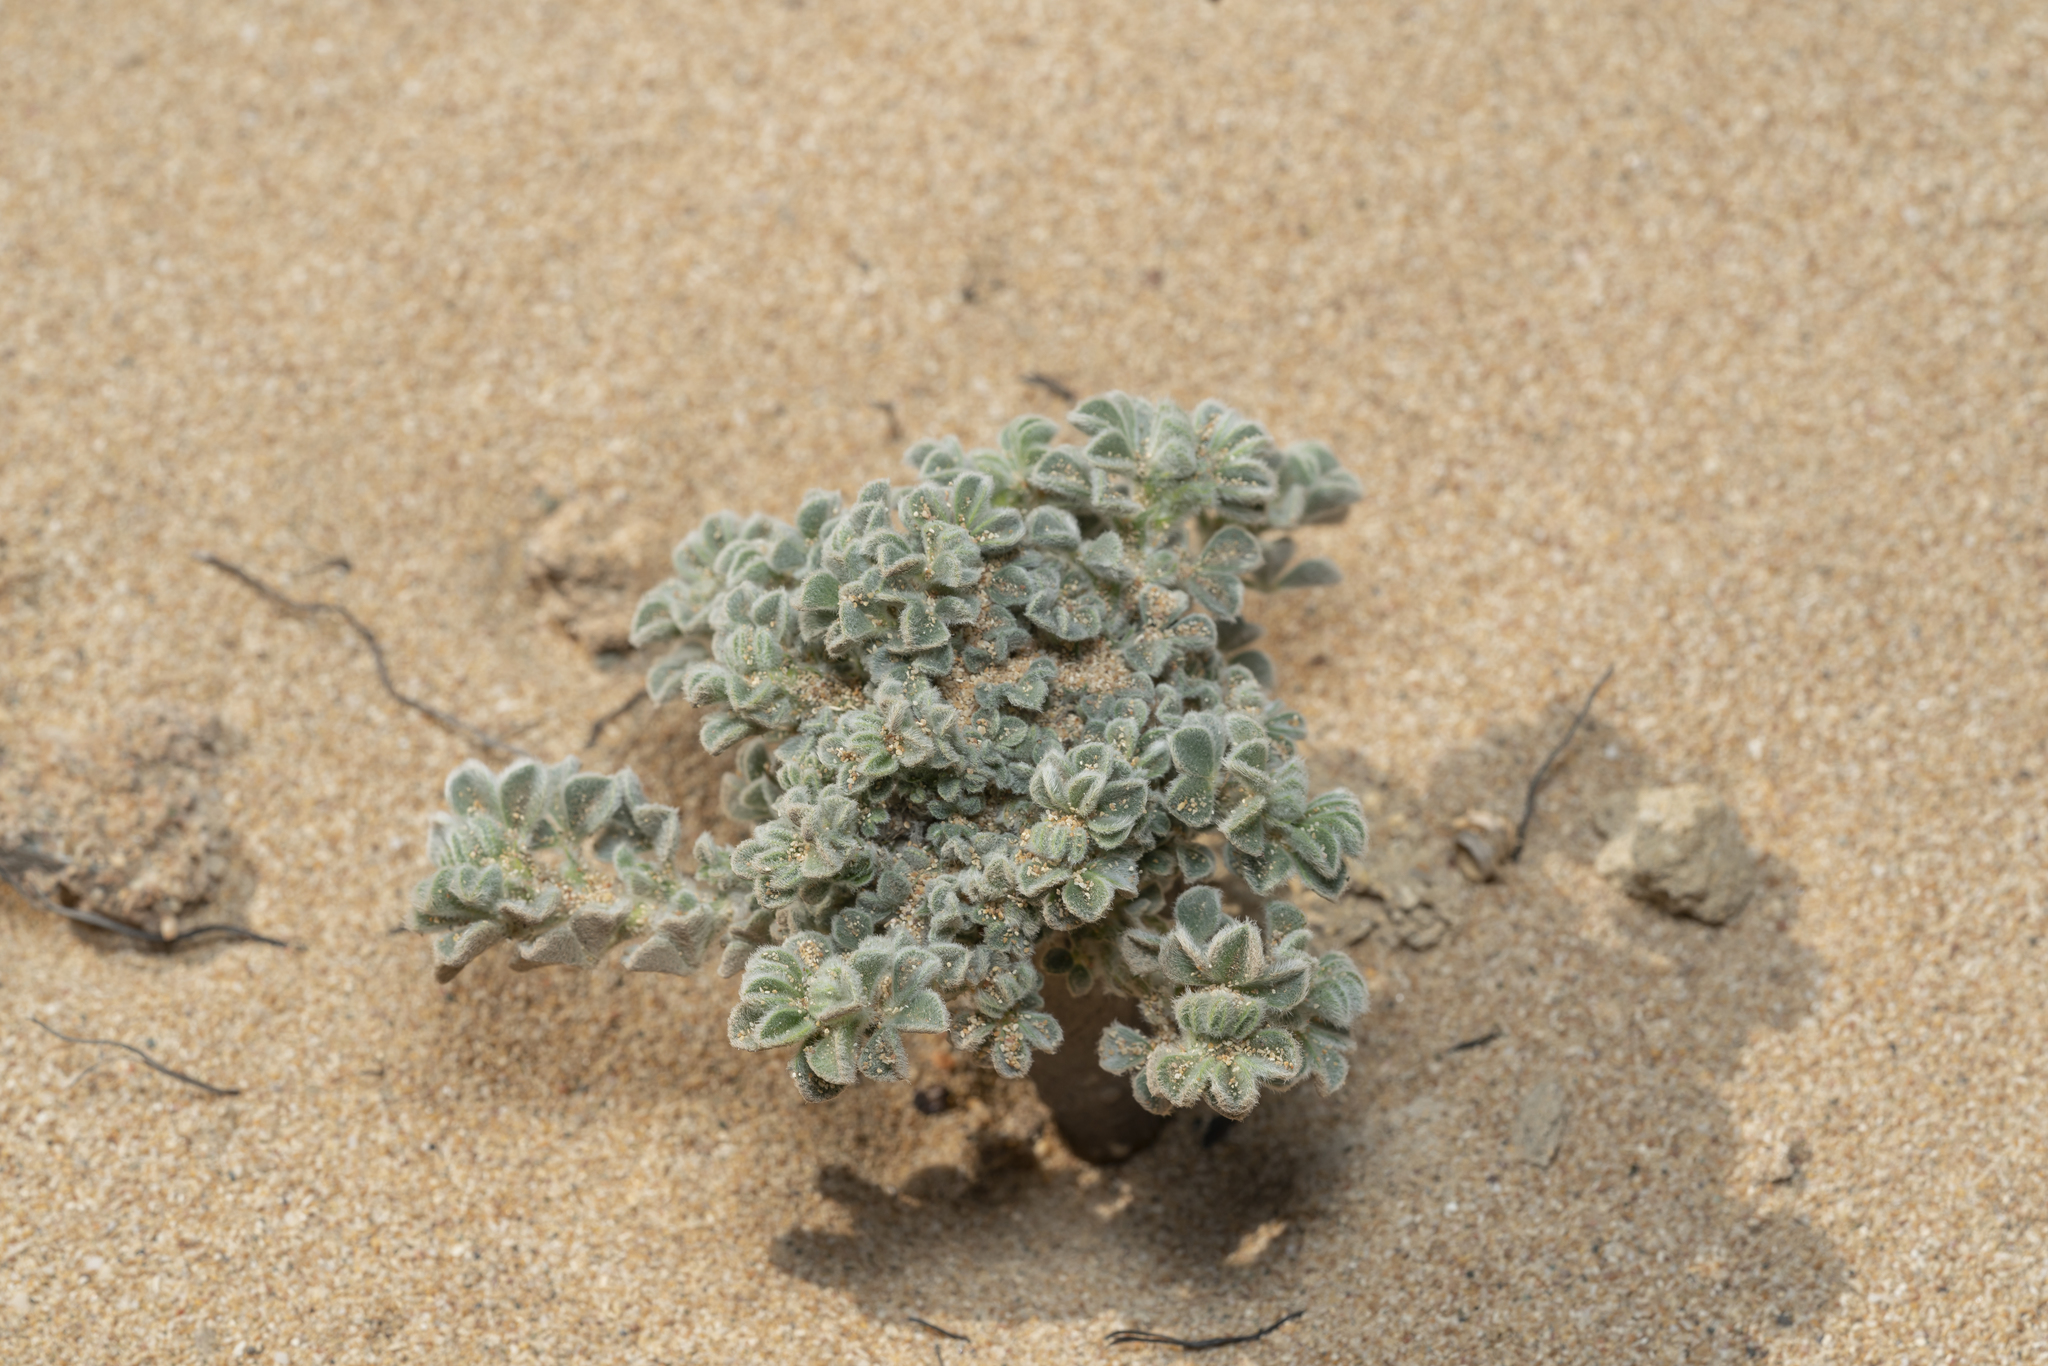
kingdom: Plantae
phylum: Tracheophyta
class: Magnoliopsida
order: Fabales
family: Fabaceae
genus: Medicago
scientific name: Medicago marina
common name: Sea medick
